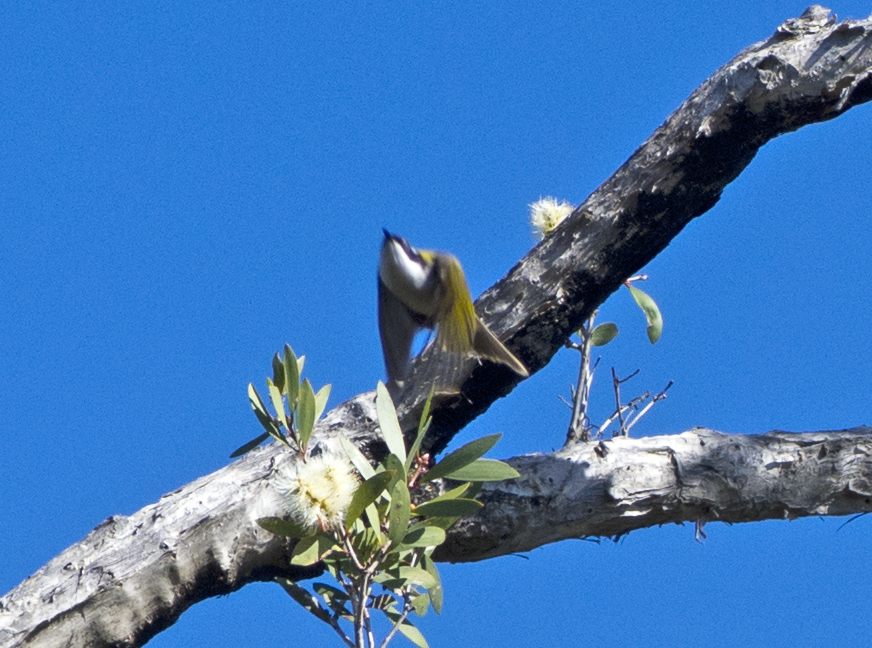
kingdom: Animalia
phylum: Chordata
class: Aves
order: Passeriformes
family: Meliphagidae
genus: Melithreptus
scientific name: Melithreptus albogularis
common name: White-throated honeyeater
